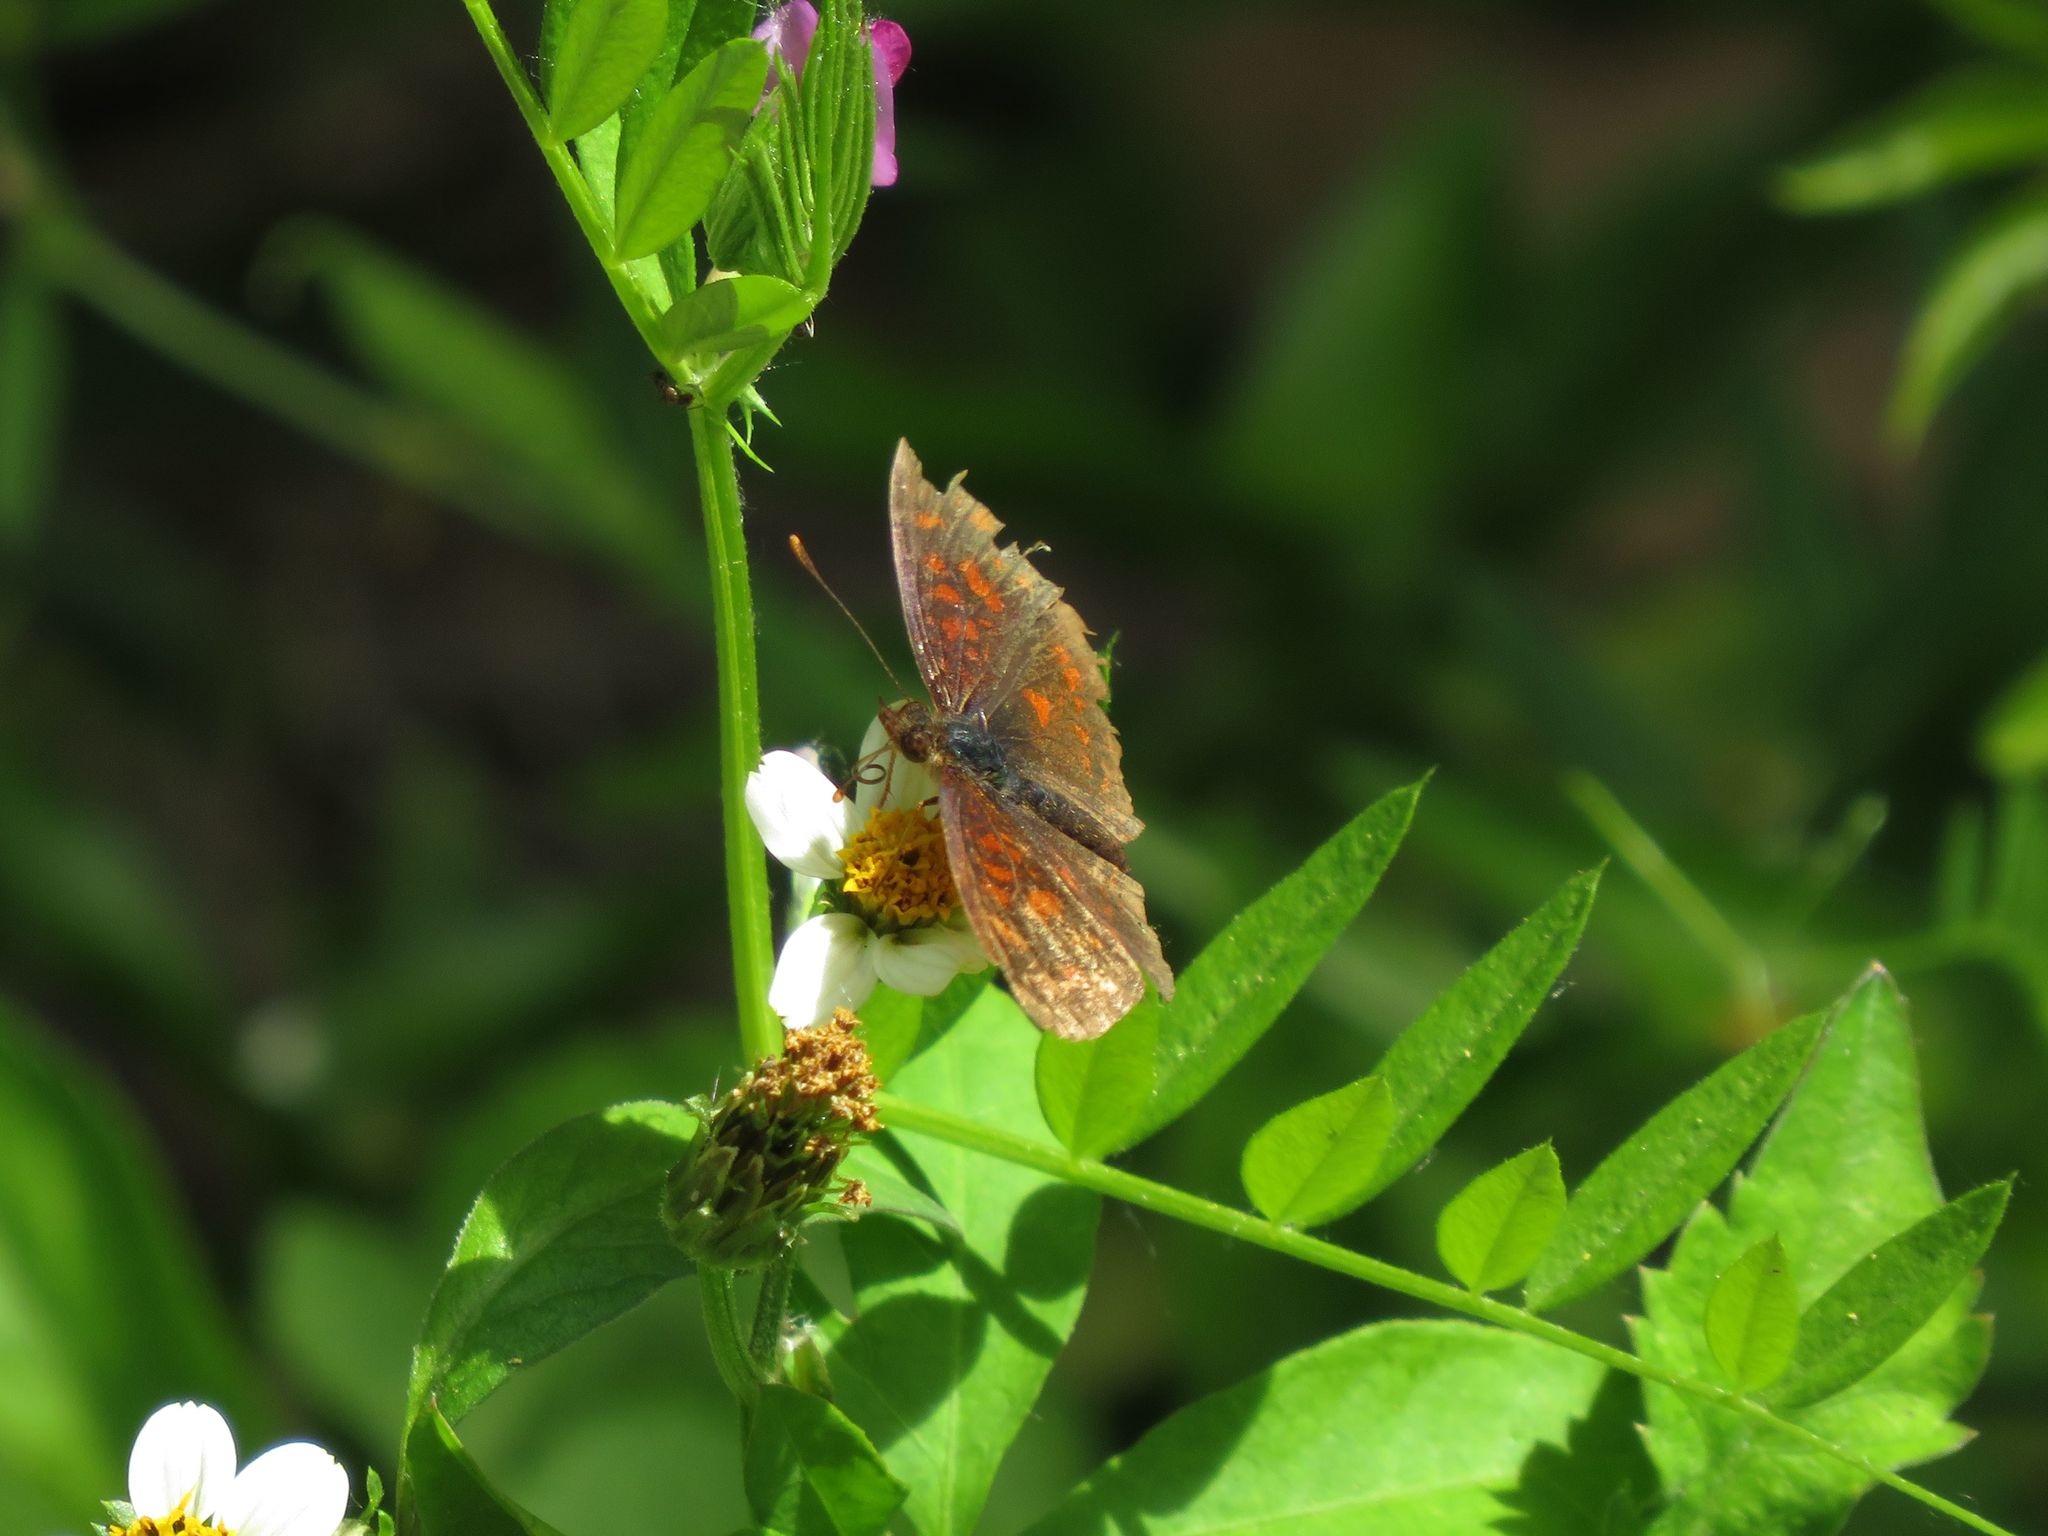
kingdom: Animalia
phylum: Arthropoda
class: Insecta
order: Lepidoptera
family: Nymphalidae
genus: Ortilia
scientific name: Ortilia velica
